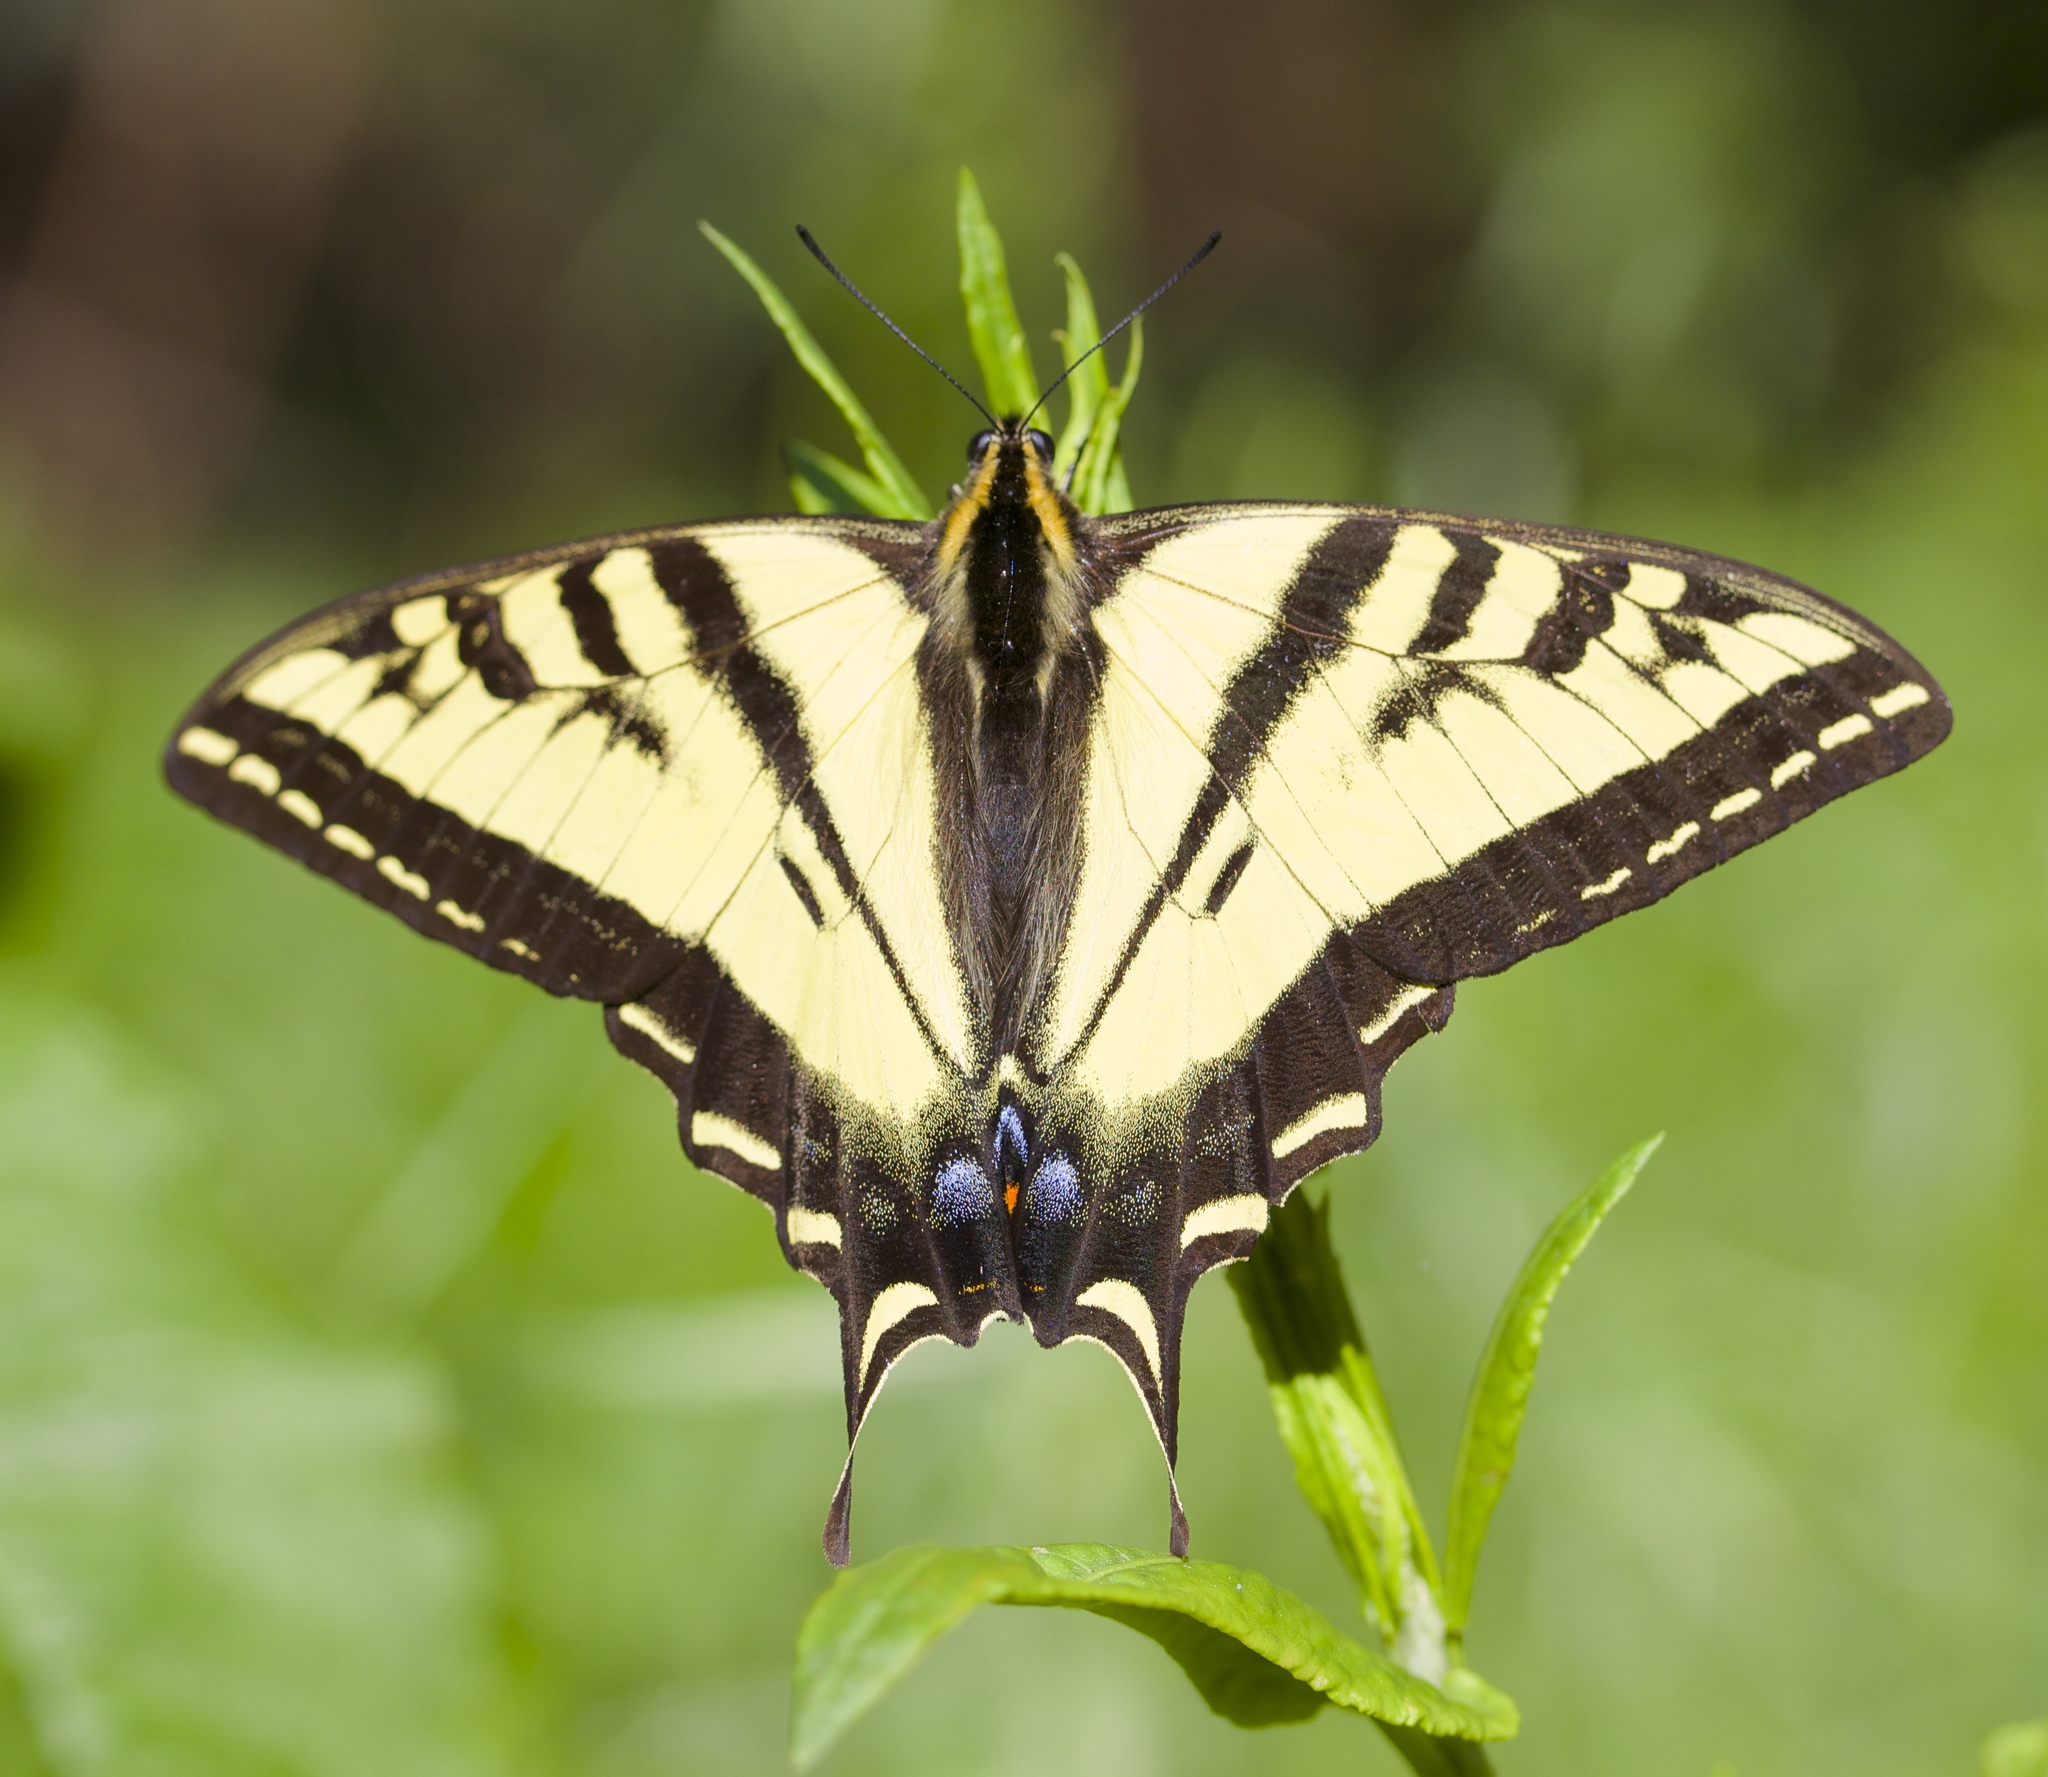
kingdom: Animalia
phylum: Arthropoda
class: Insecta
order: Lepidoptera
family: Papilionidae
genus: Papilio
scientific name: Papilio rutulus
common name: Western tiger swallowtail
